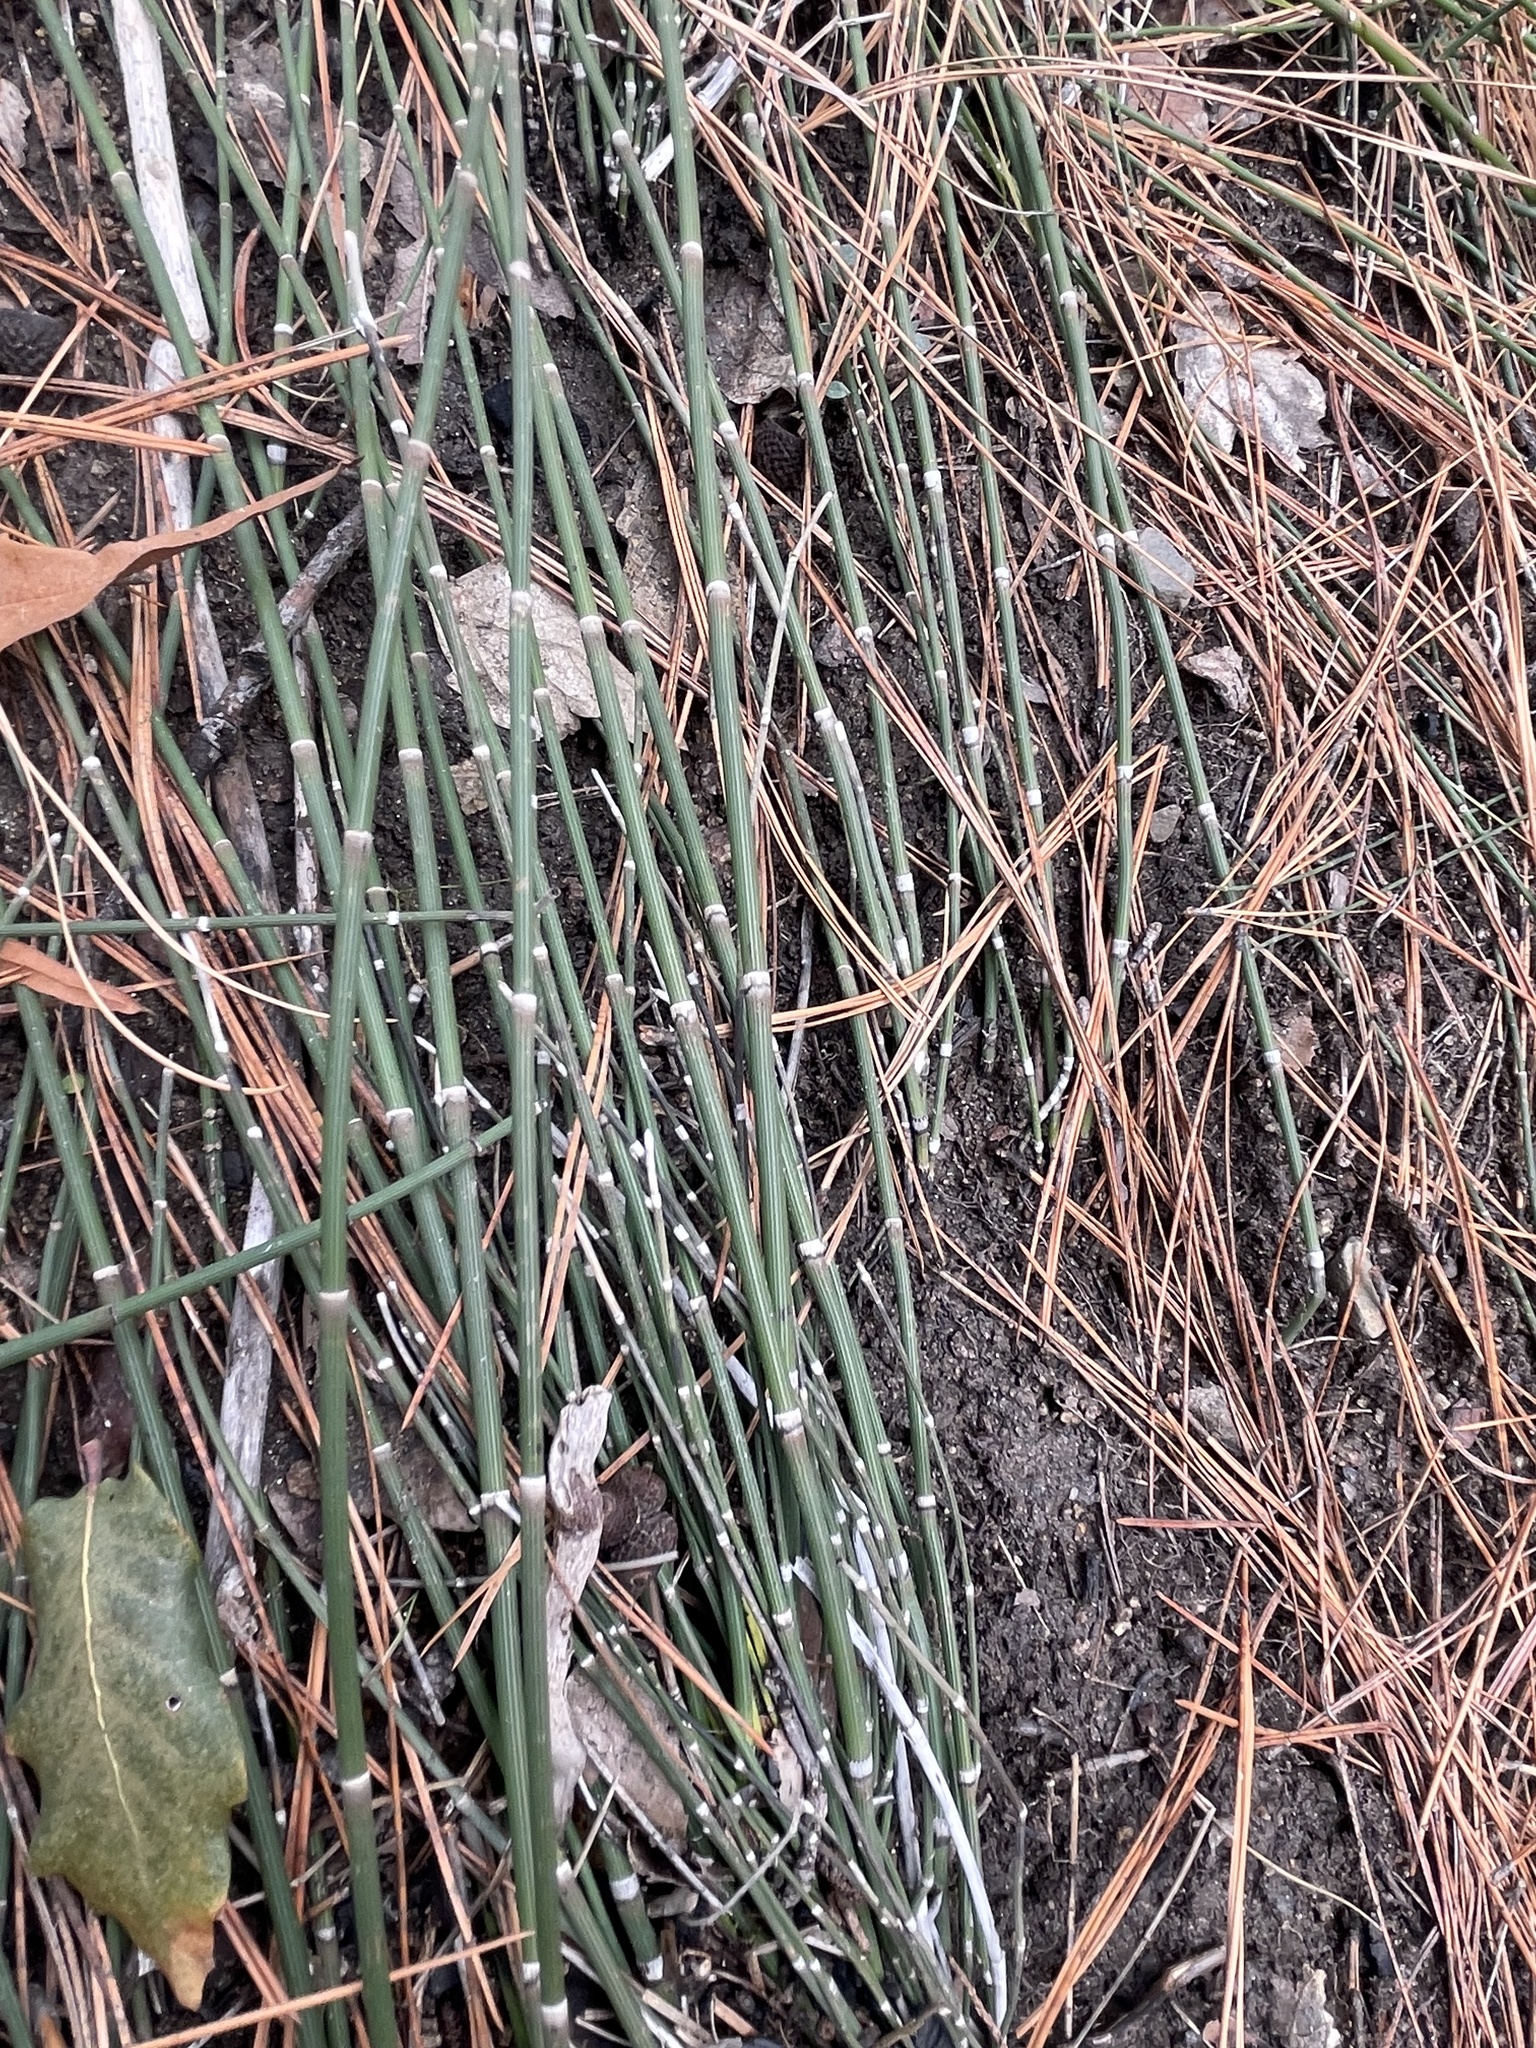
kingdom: Plantae
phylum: Tracheophyta
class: Polypodiopsida
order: Equisetales
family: Equisetaceae
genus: Equisetum
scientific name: Equisetum praealtum
